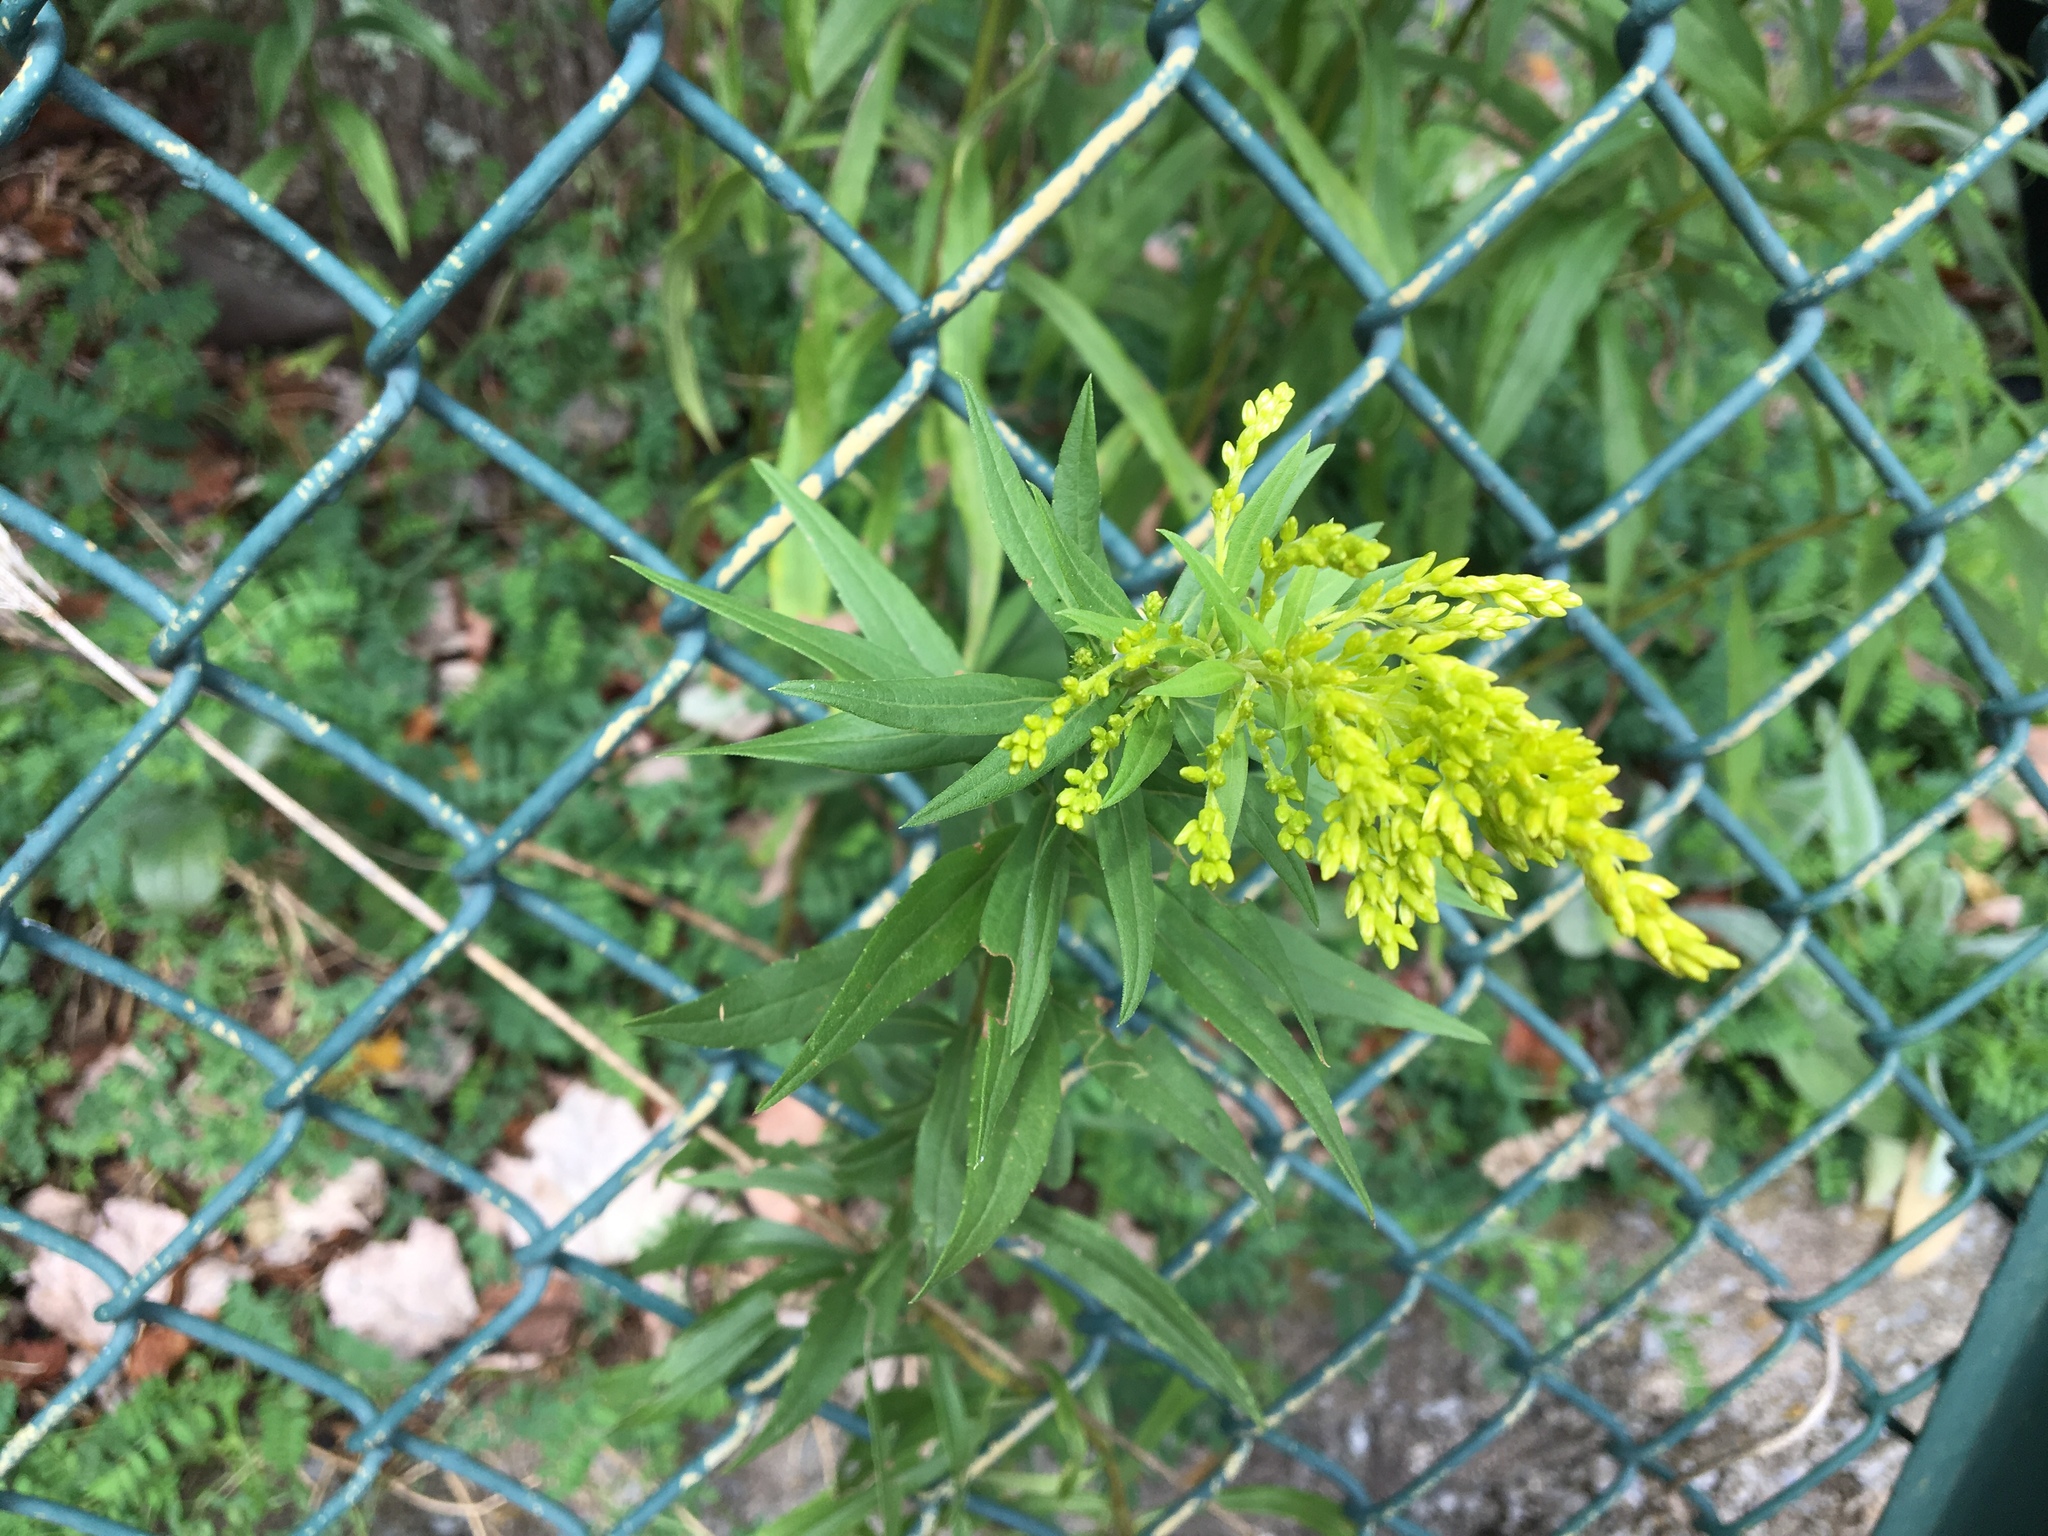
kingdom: Plantae
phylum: Tracheophyta
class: Magnoliopsida
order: Asterales
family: Asteraceae
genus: Solidago
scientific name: Solidago altissima
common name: Late goldenrod
